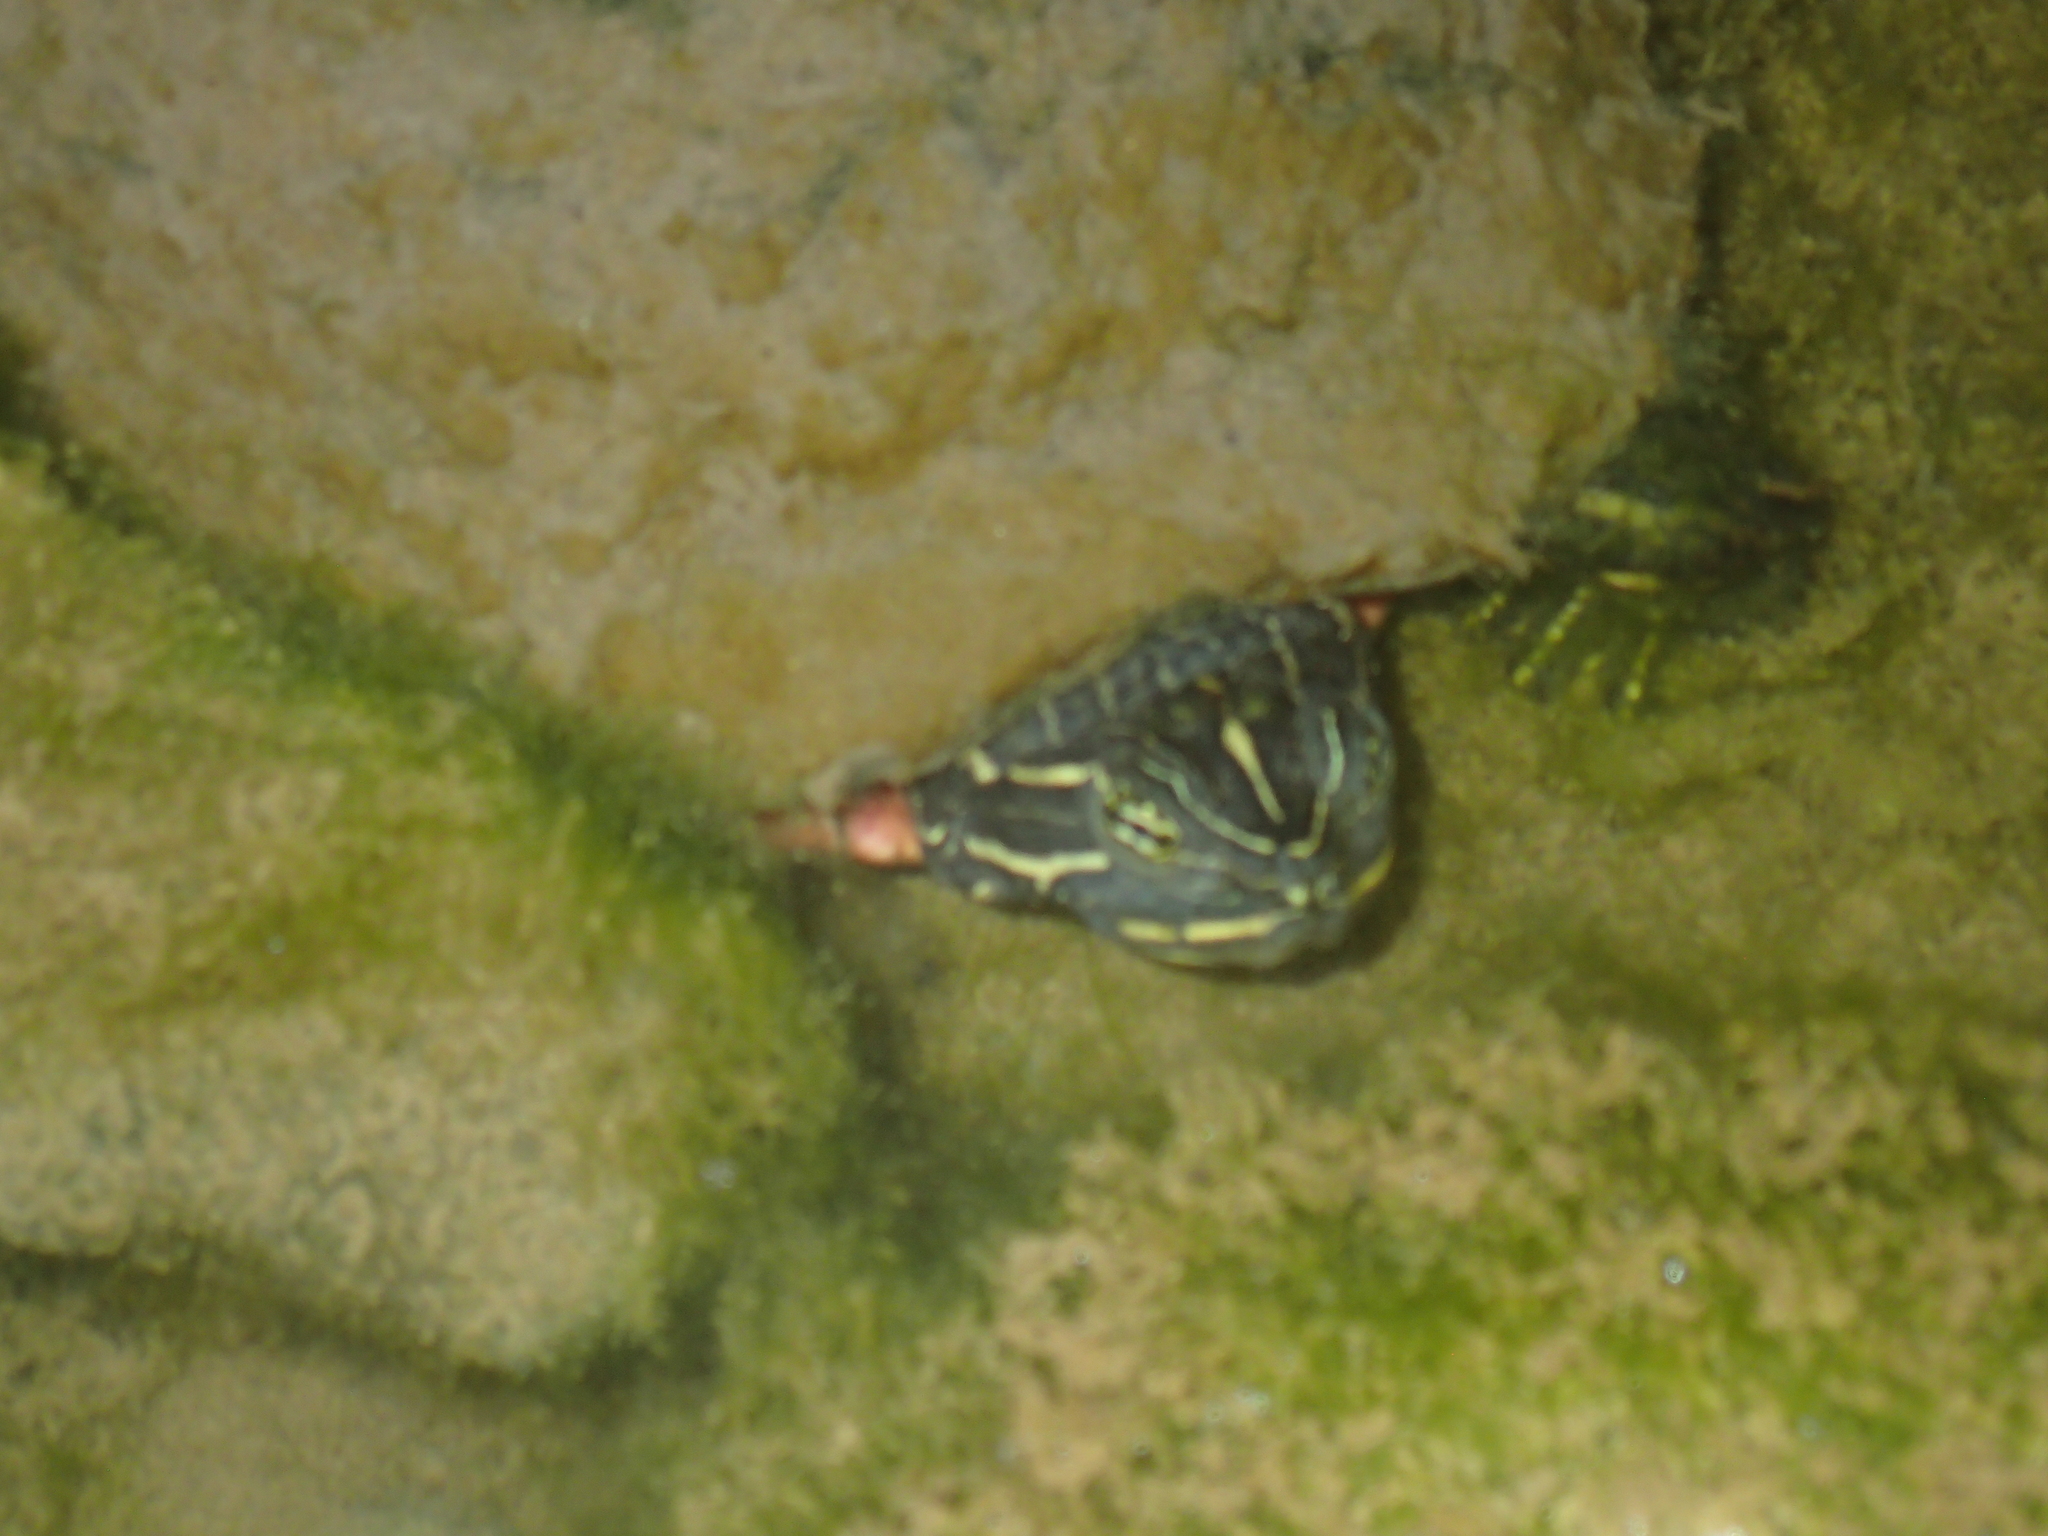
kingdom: Animalia
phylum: Chordata
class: Testudines
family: Emydidae
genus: Pseudemys
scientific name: Pseudemys rubriventris
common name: American red-bellied turtle
